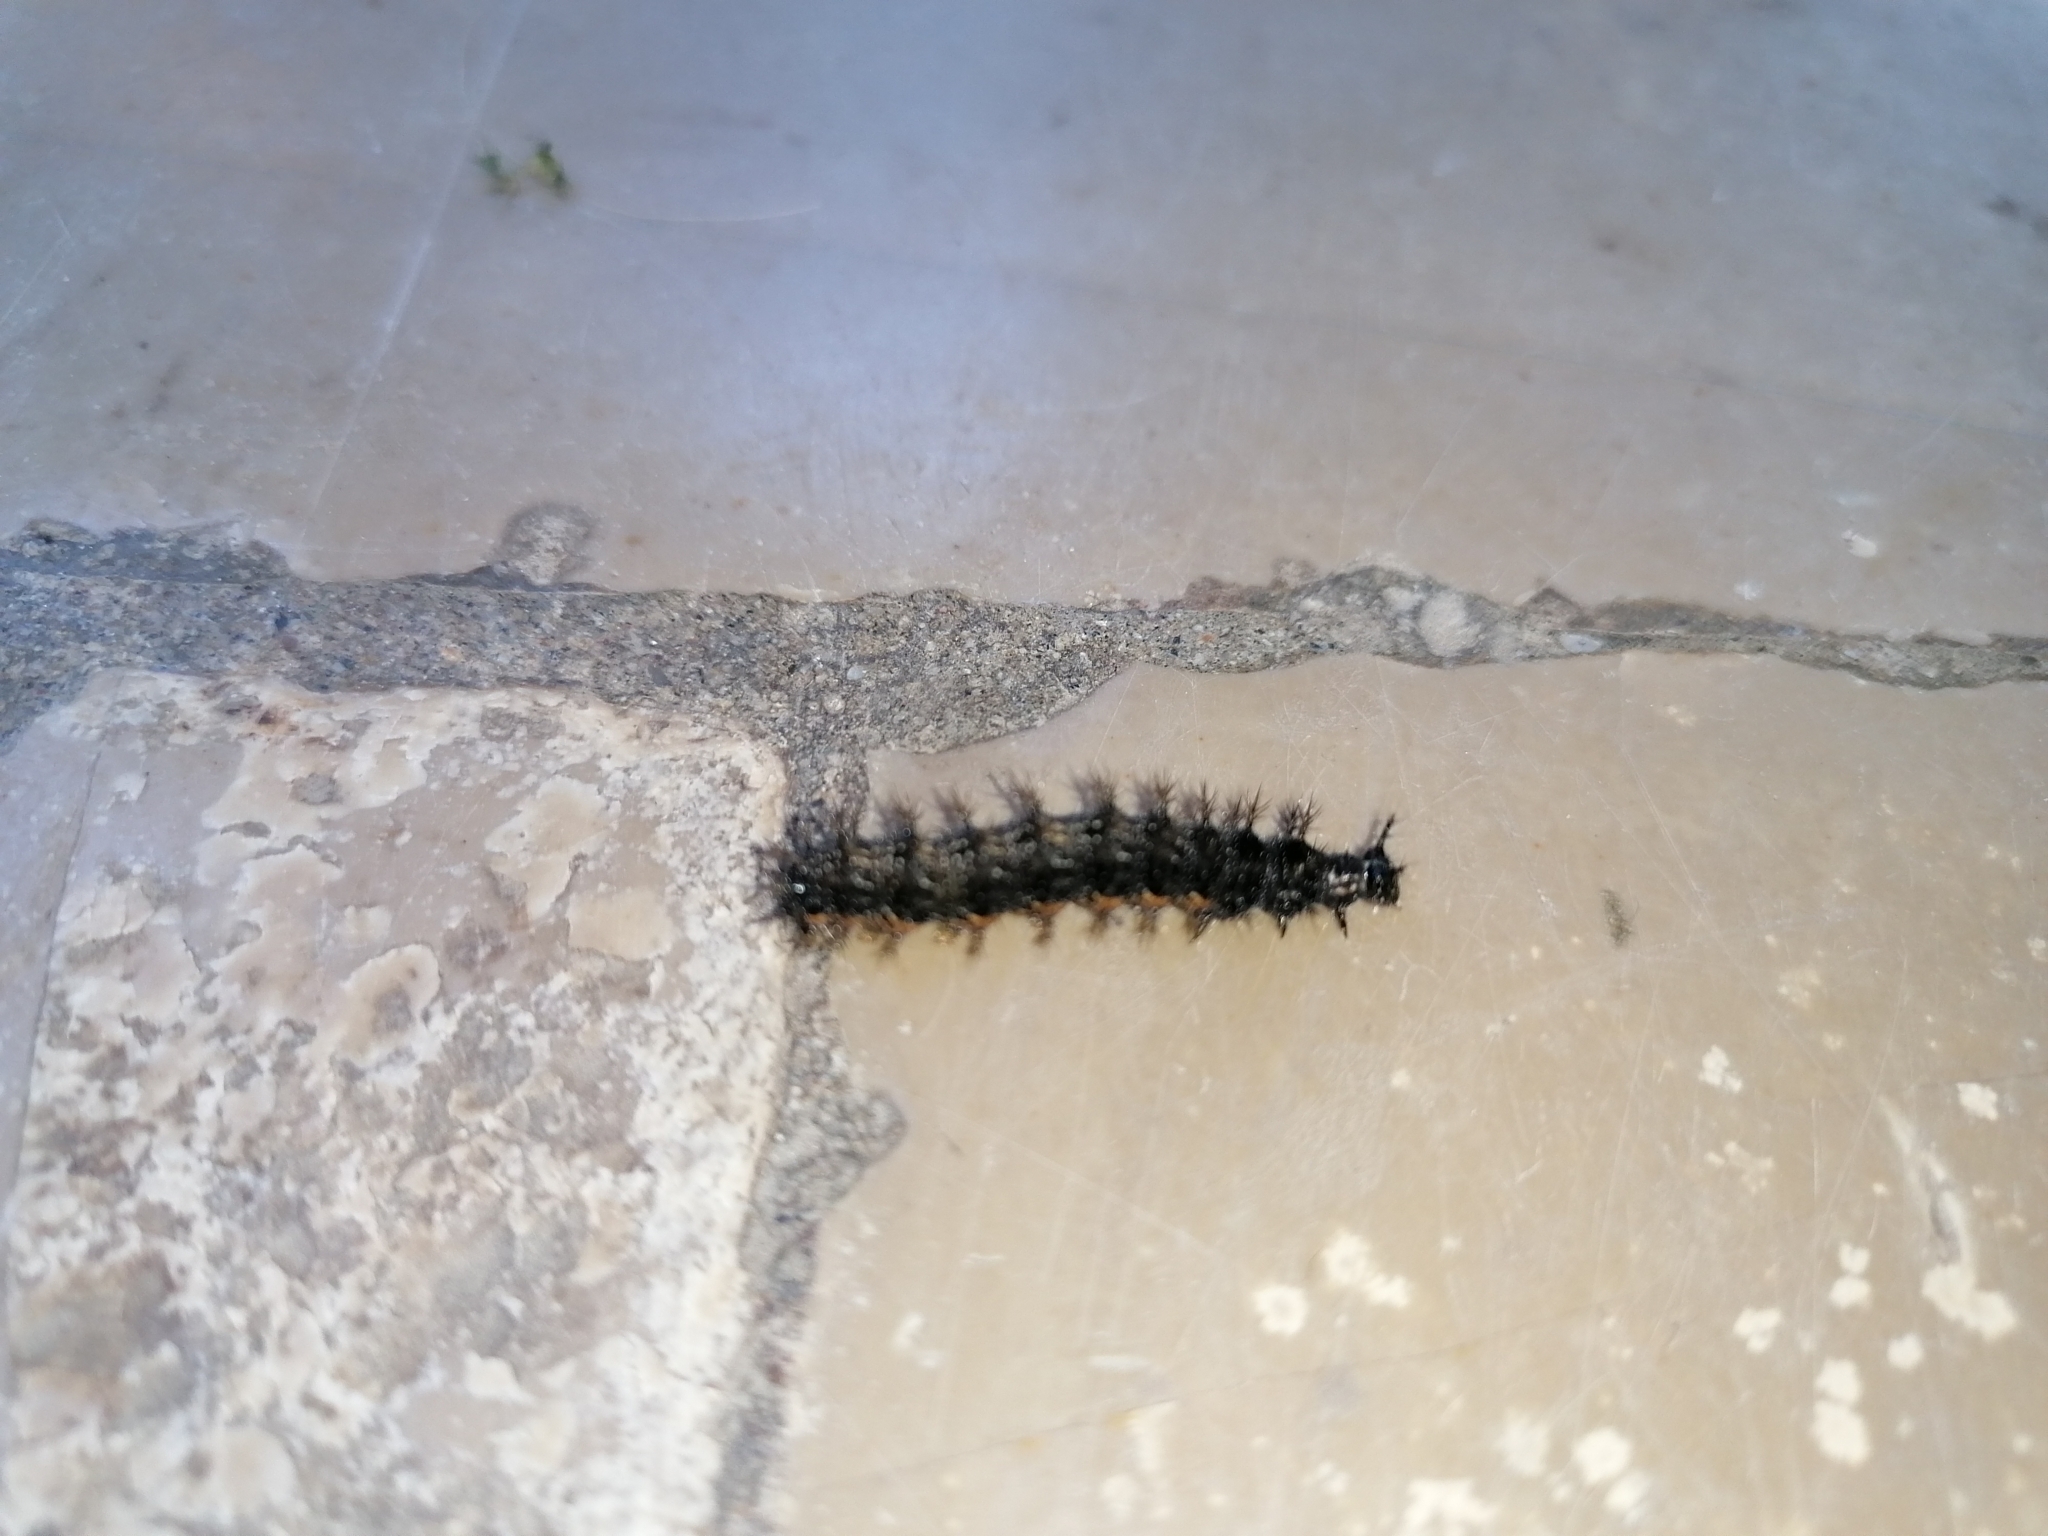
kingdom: Animalia
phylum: Arthropoda
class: Insecta
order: Lepidoptera
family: Nymphalidae
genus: Araschnia
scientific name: Araschnia levana
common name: Map butterfly
